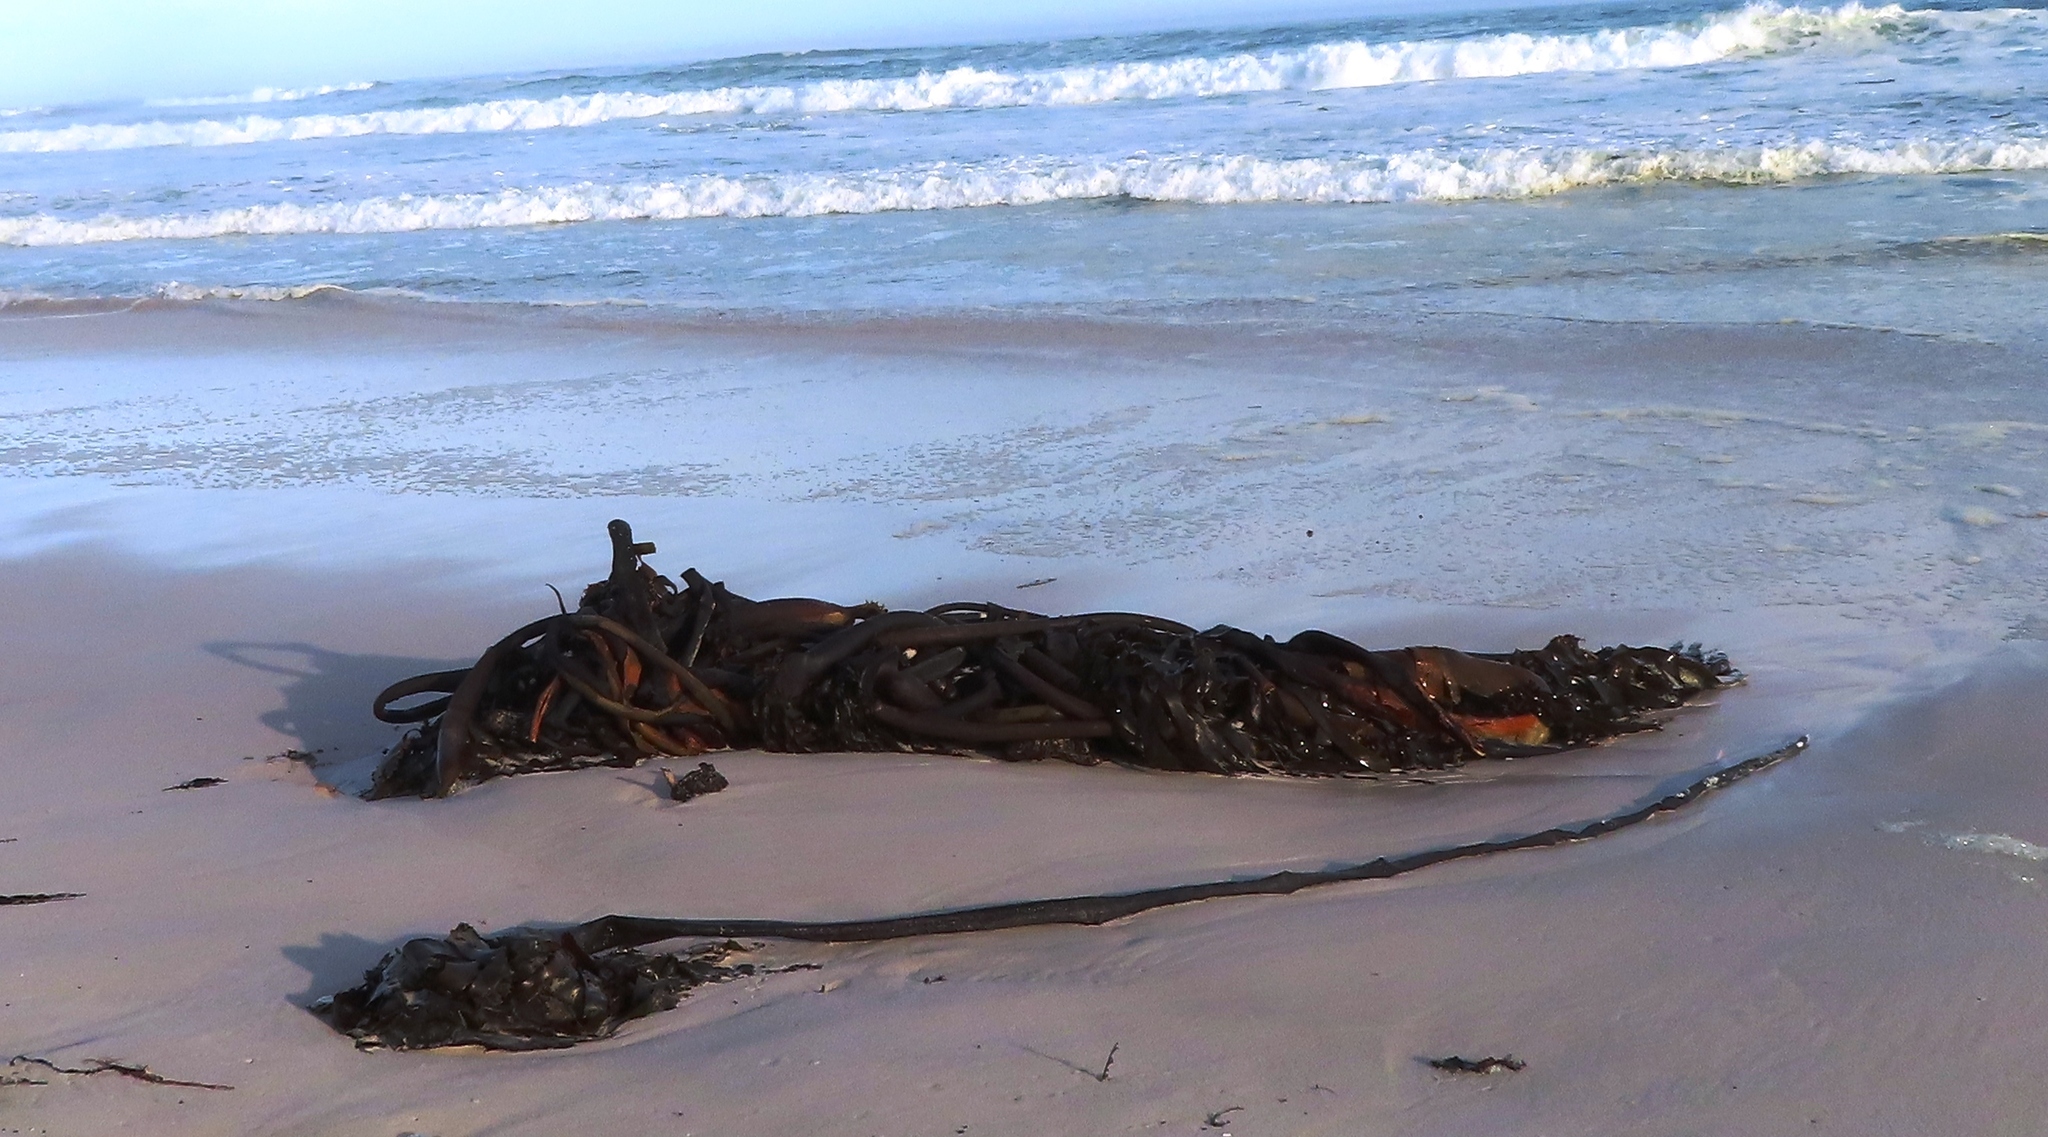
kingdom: Chromista
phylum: Ochrophyta
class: Phaeophyceae
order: Laminariales
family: Lessoniaceae
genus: Ecklonia
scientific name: Ecklonia
